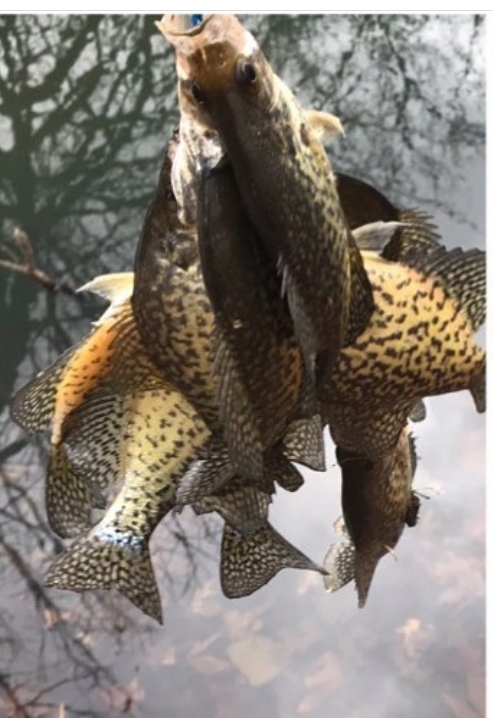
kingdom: Animalia
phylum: Chordata
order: Perciformes
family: Centrarchidae
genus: Pomoxis
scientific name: Pomoxis nigromaculatus
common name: Black crappie
